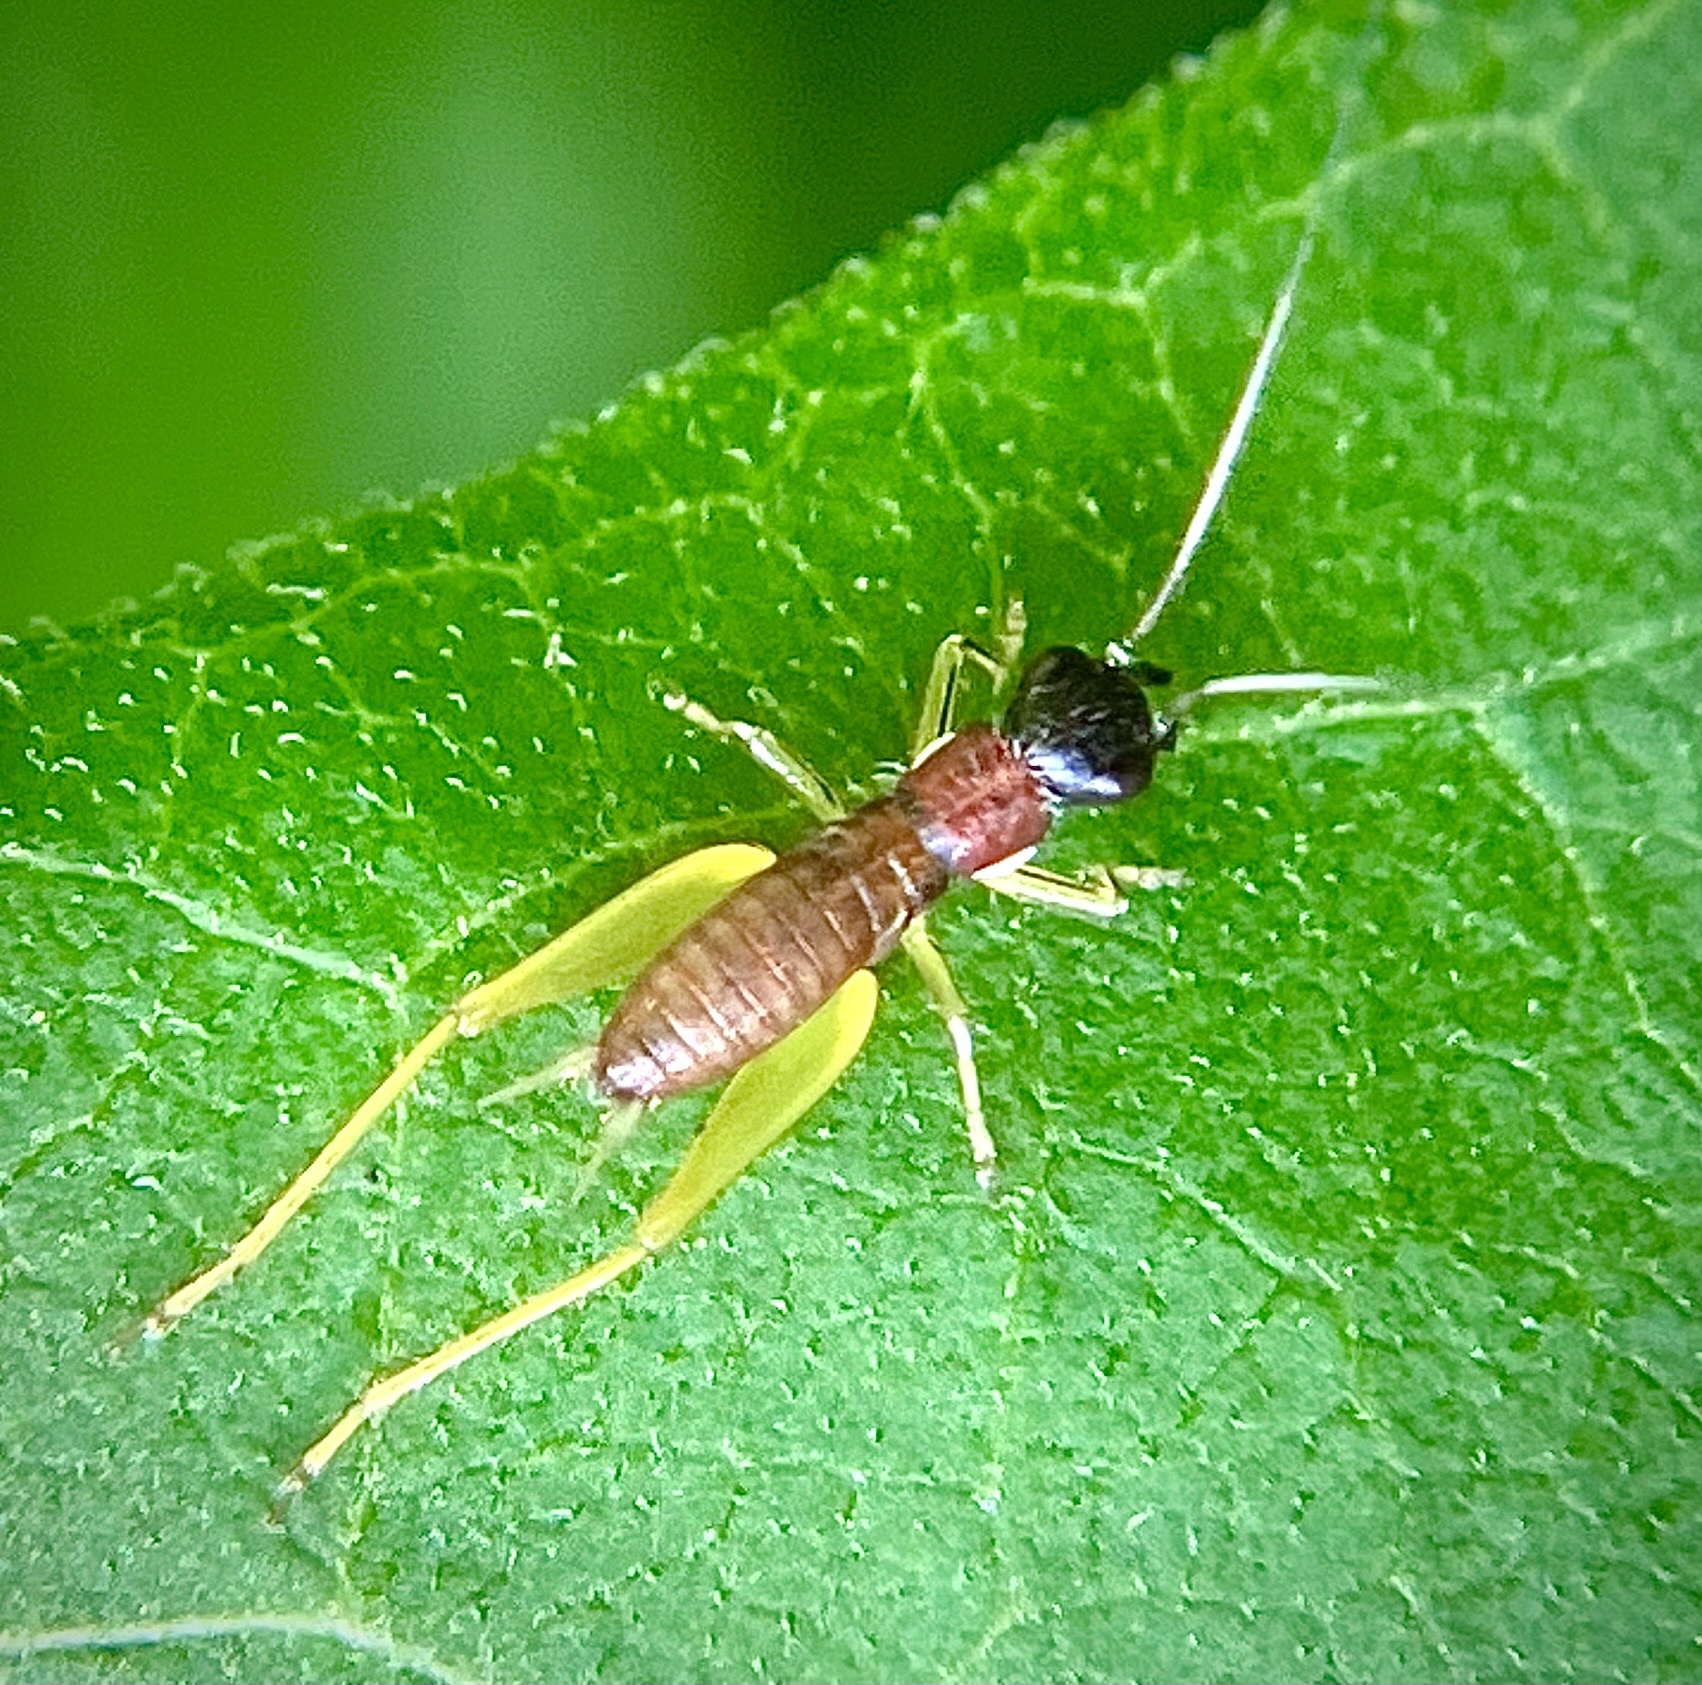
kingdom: Animalia
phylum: Arthropoda
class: Insecta
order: Orthoptera
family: Trigonidiidae
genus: Phyllopalpus
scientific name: Phyllopalpus pulchellus
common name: Handsome trig
